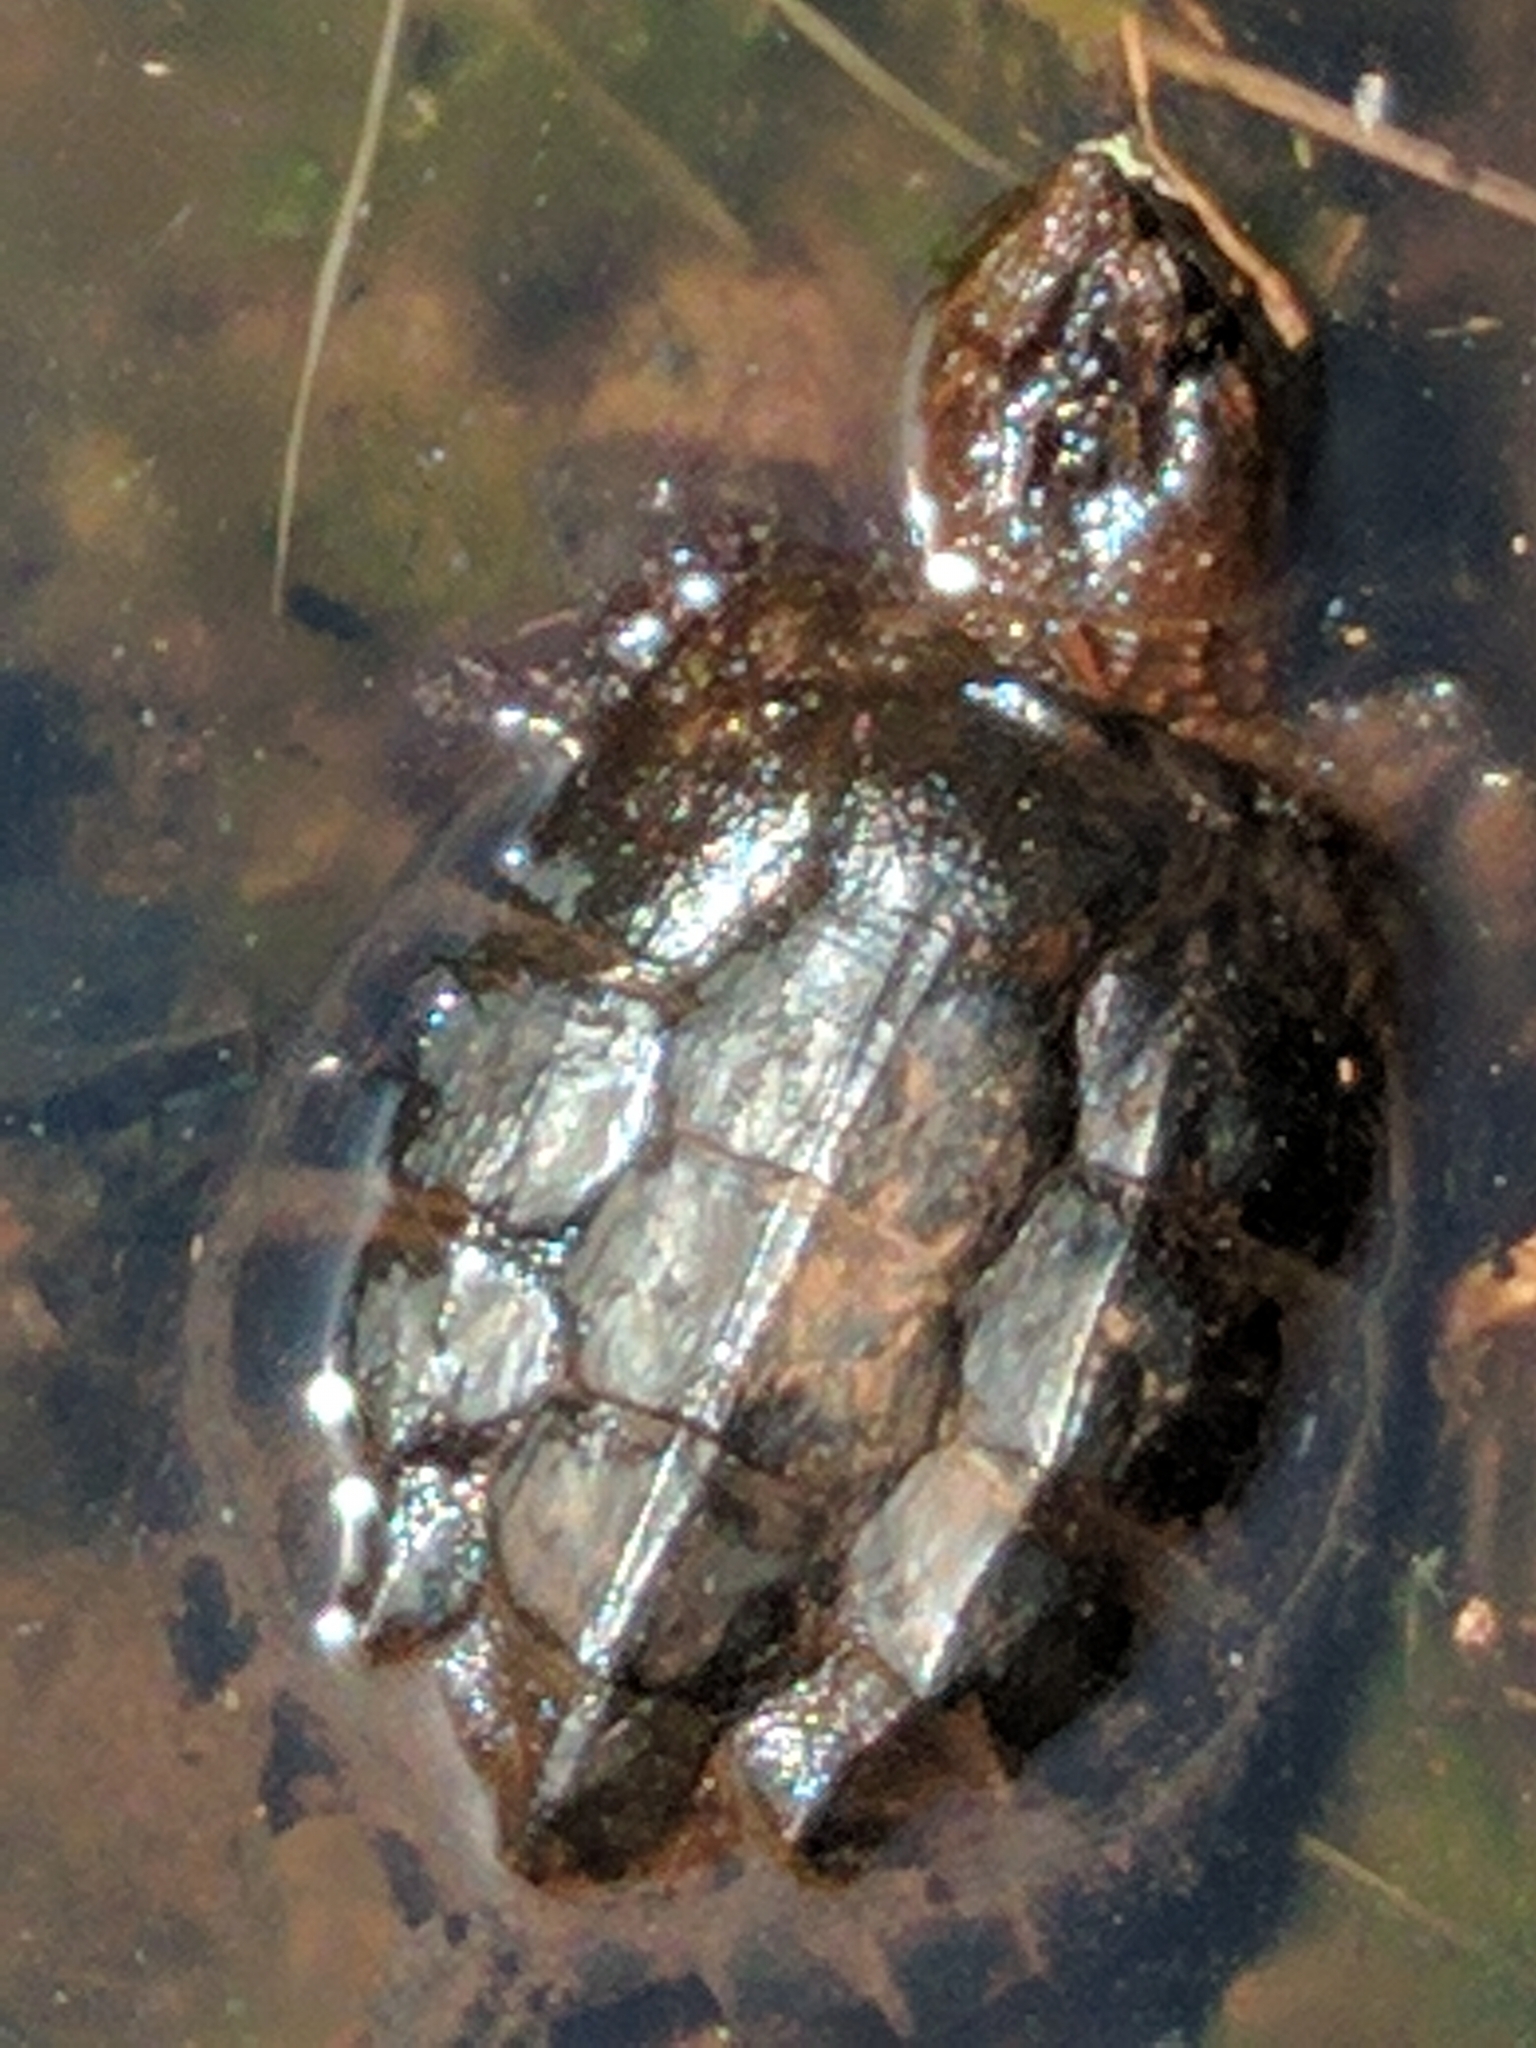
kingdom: Animalia
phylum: Chordata
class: Testudines
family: Chelydridae
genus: Chelydra
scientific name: Chelydra serpentina
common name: Common snapping turtle
